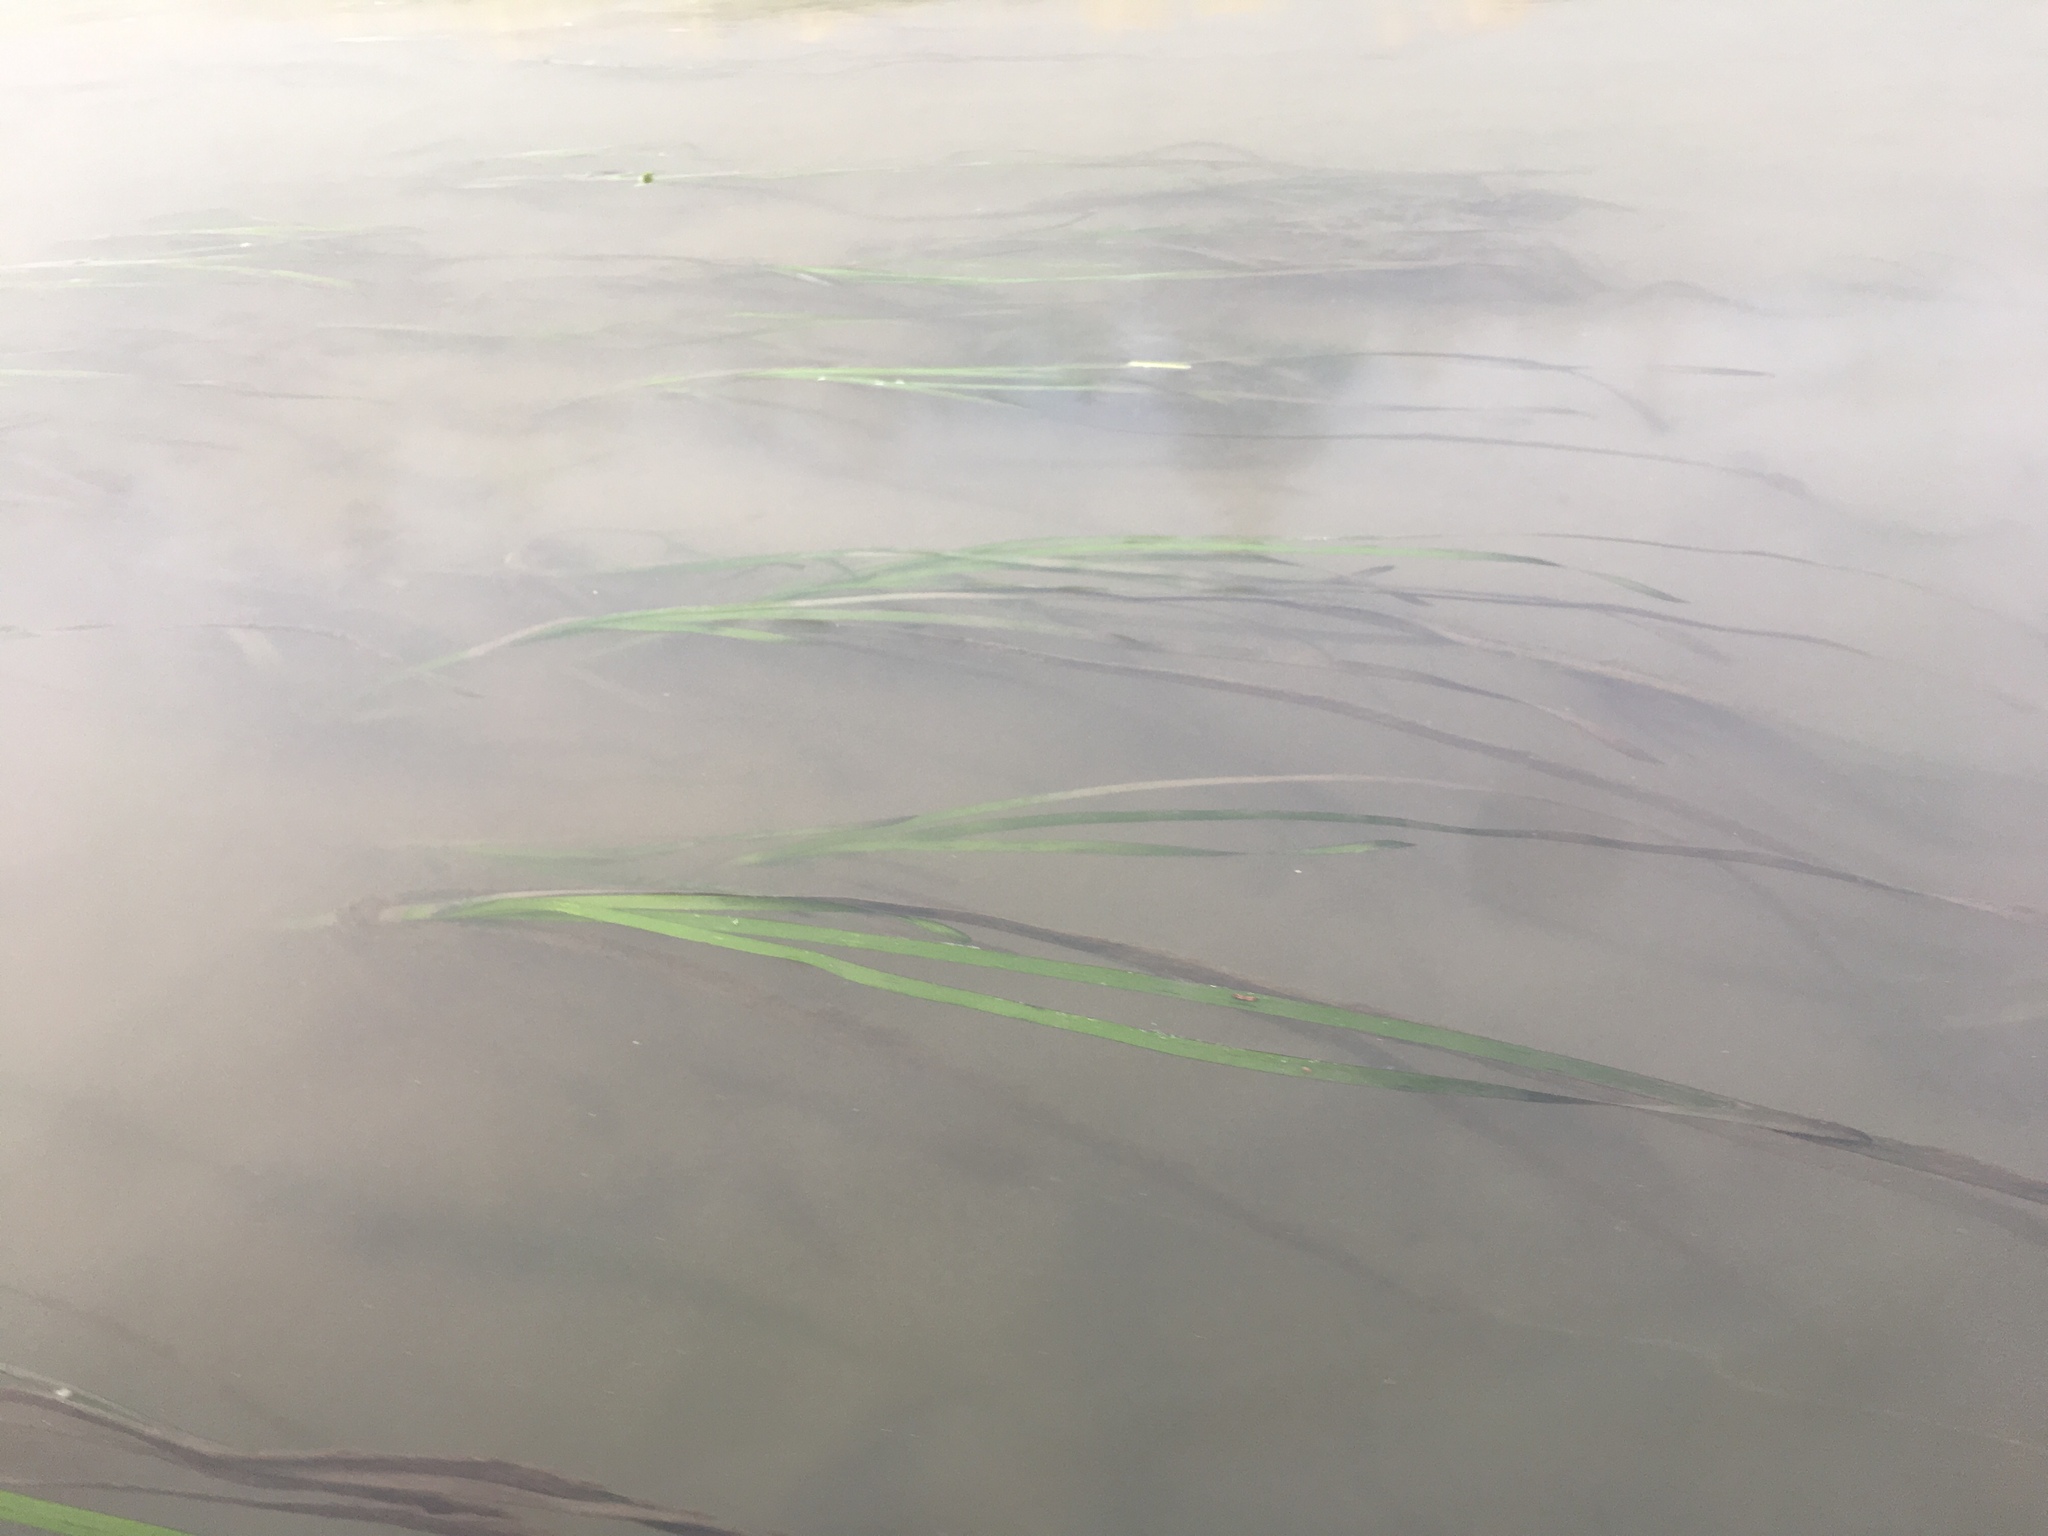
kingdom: Plantae
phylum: Tracheophyta
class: Liliopsida
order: Alismatales
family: Zosteraceae
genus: Zostera
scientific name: Zostera marina
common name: Eelgrass
